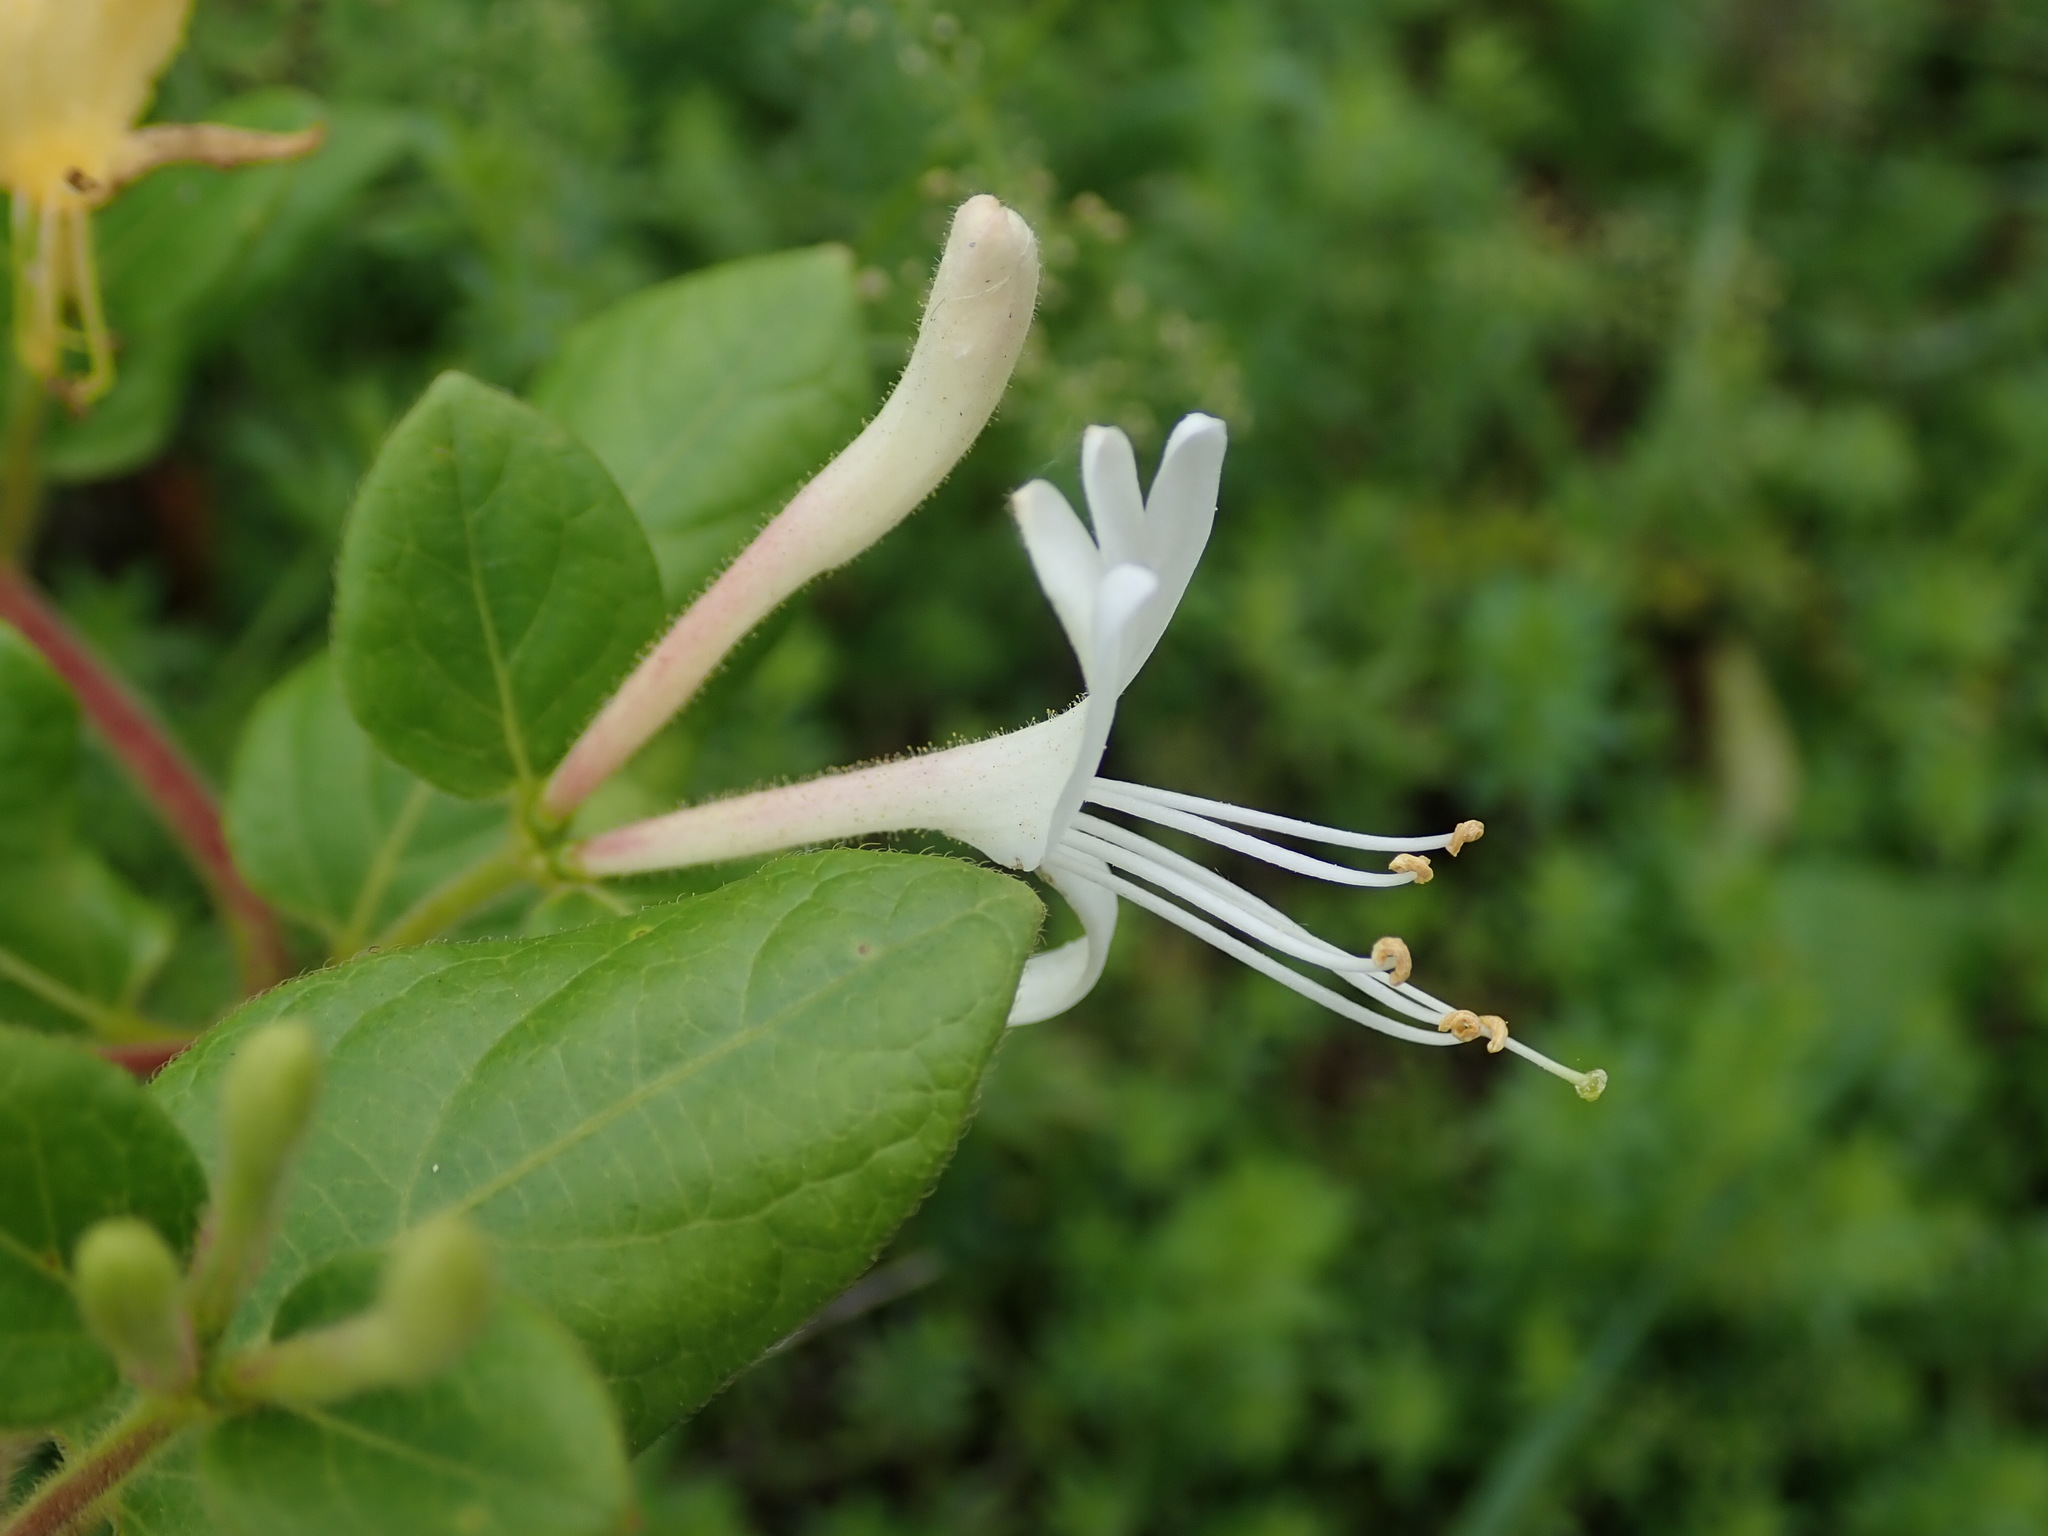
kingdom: Plantae
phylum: Tracheophyta
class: Magnoliopsida
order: Dipsacales
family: Caprifoliaceae
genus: Lonicera
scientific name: Lonicera japonica
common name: Japanese honeysuckle
